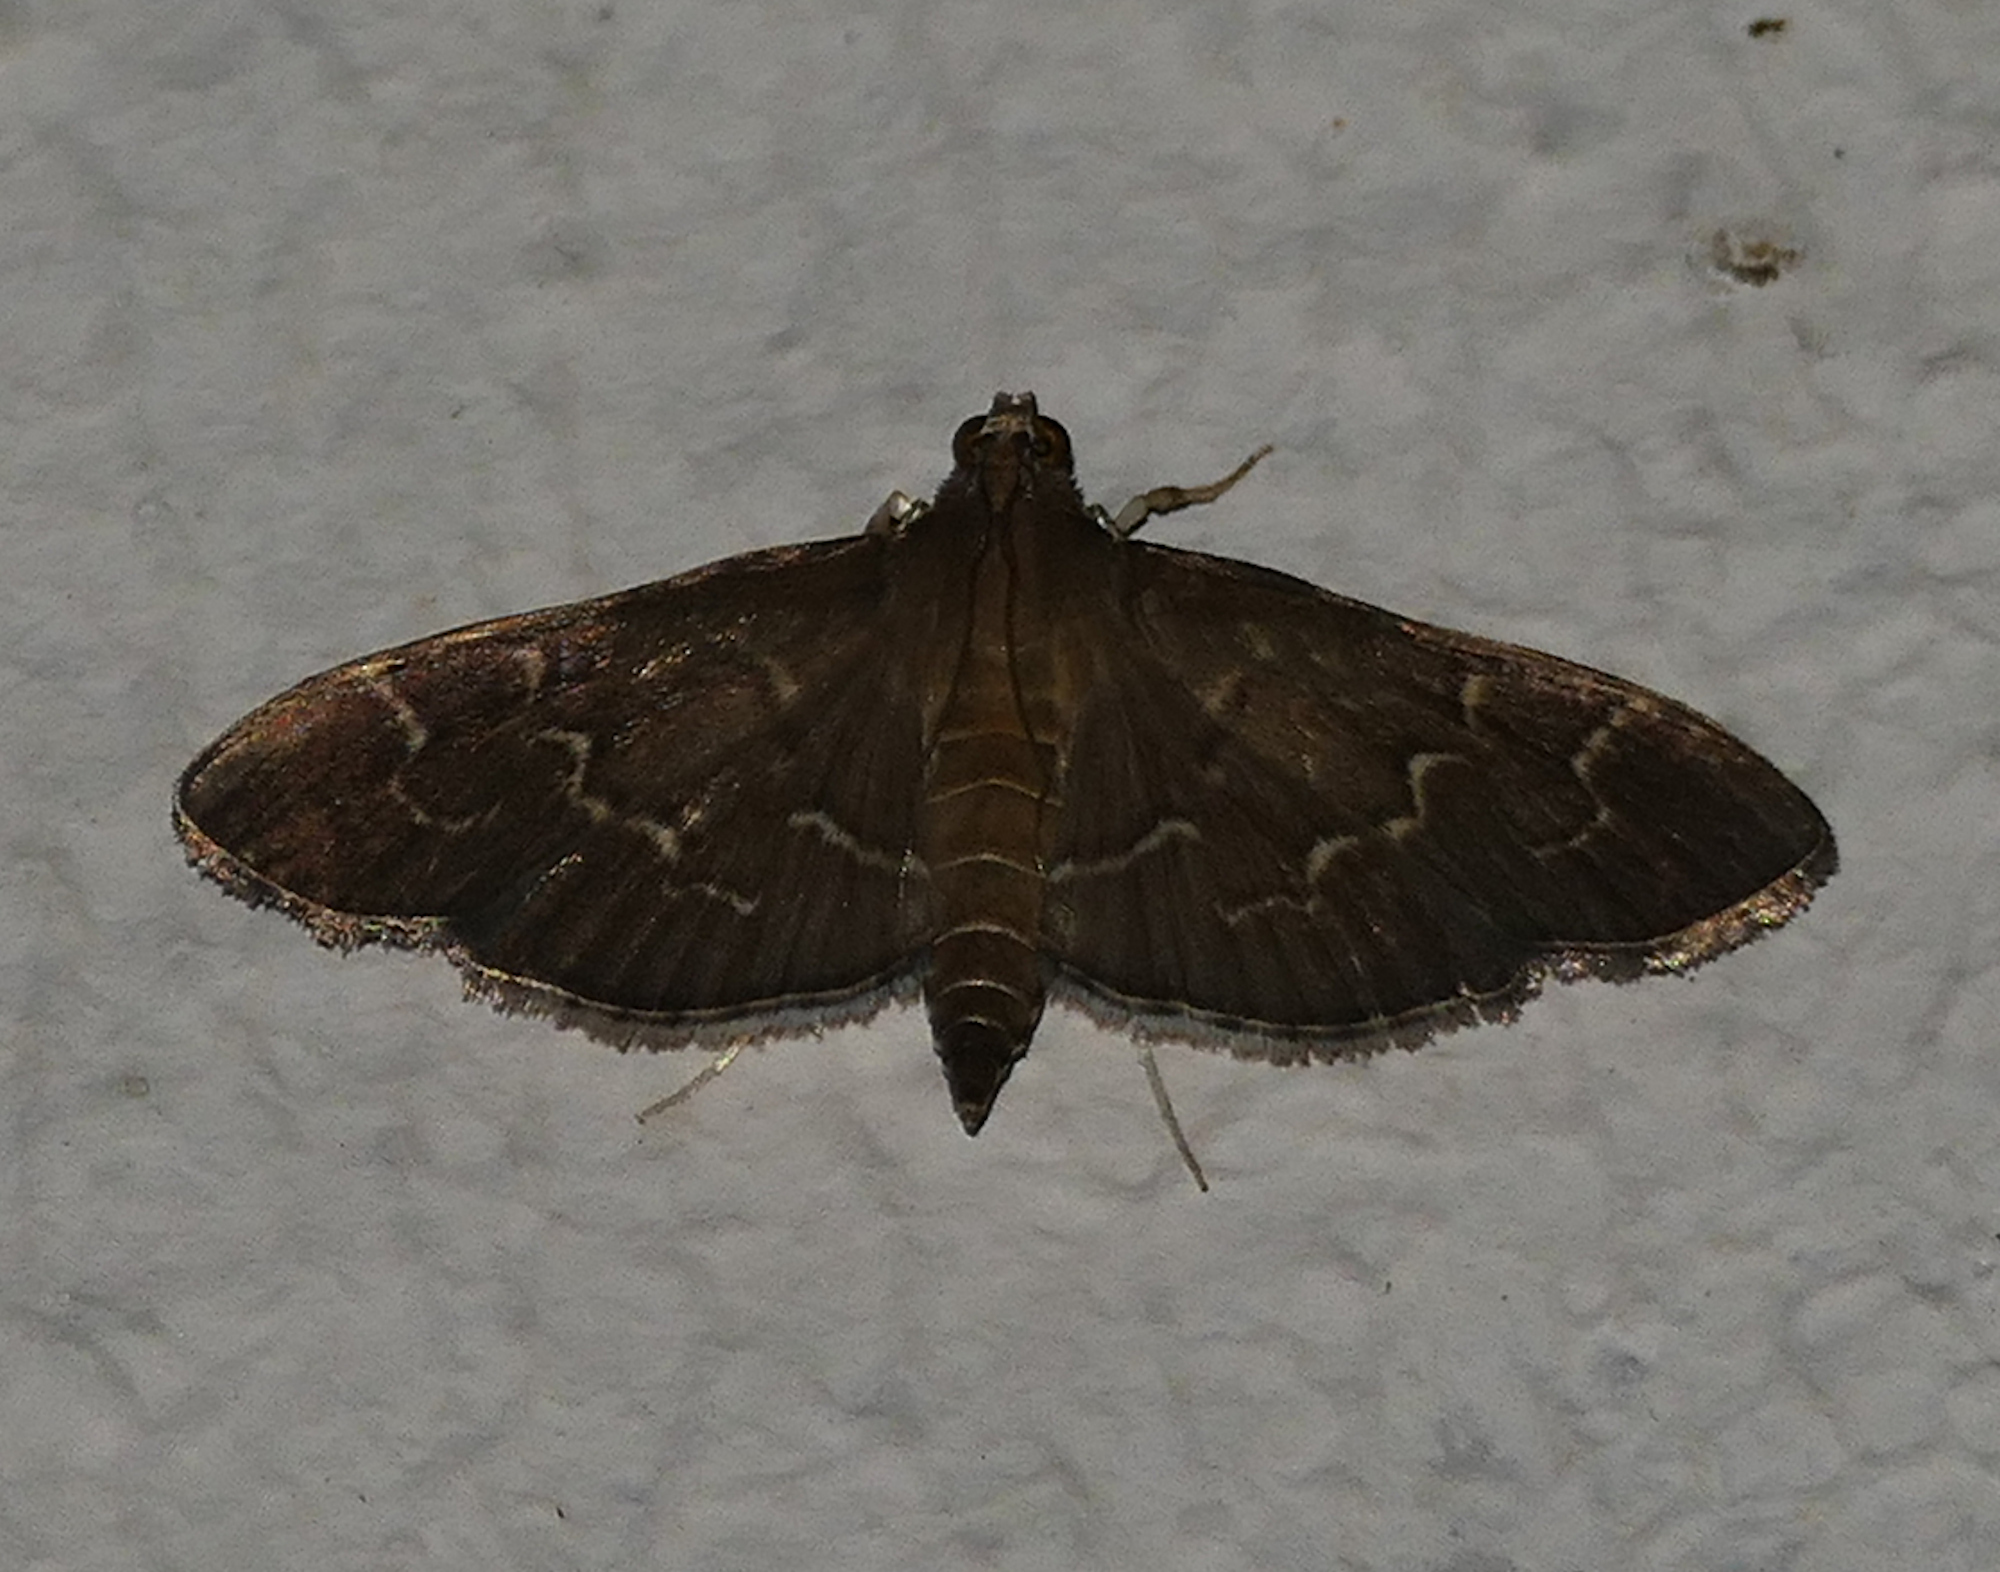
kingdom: Animalia
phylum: Arthropoda
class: Insecta
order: Lepidoptera
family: Crambidae
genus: Pilocrocis
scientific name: Pilocrocis ramentalis
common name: Scraped pilocrocis
